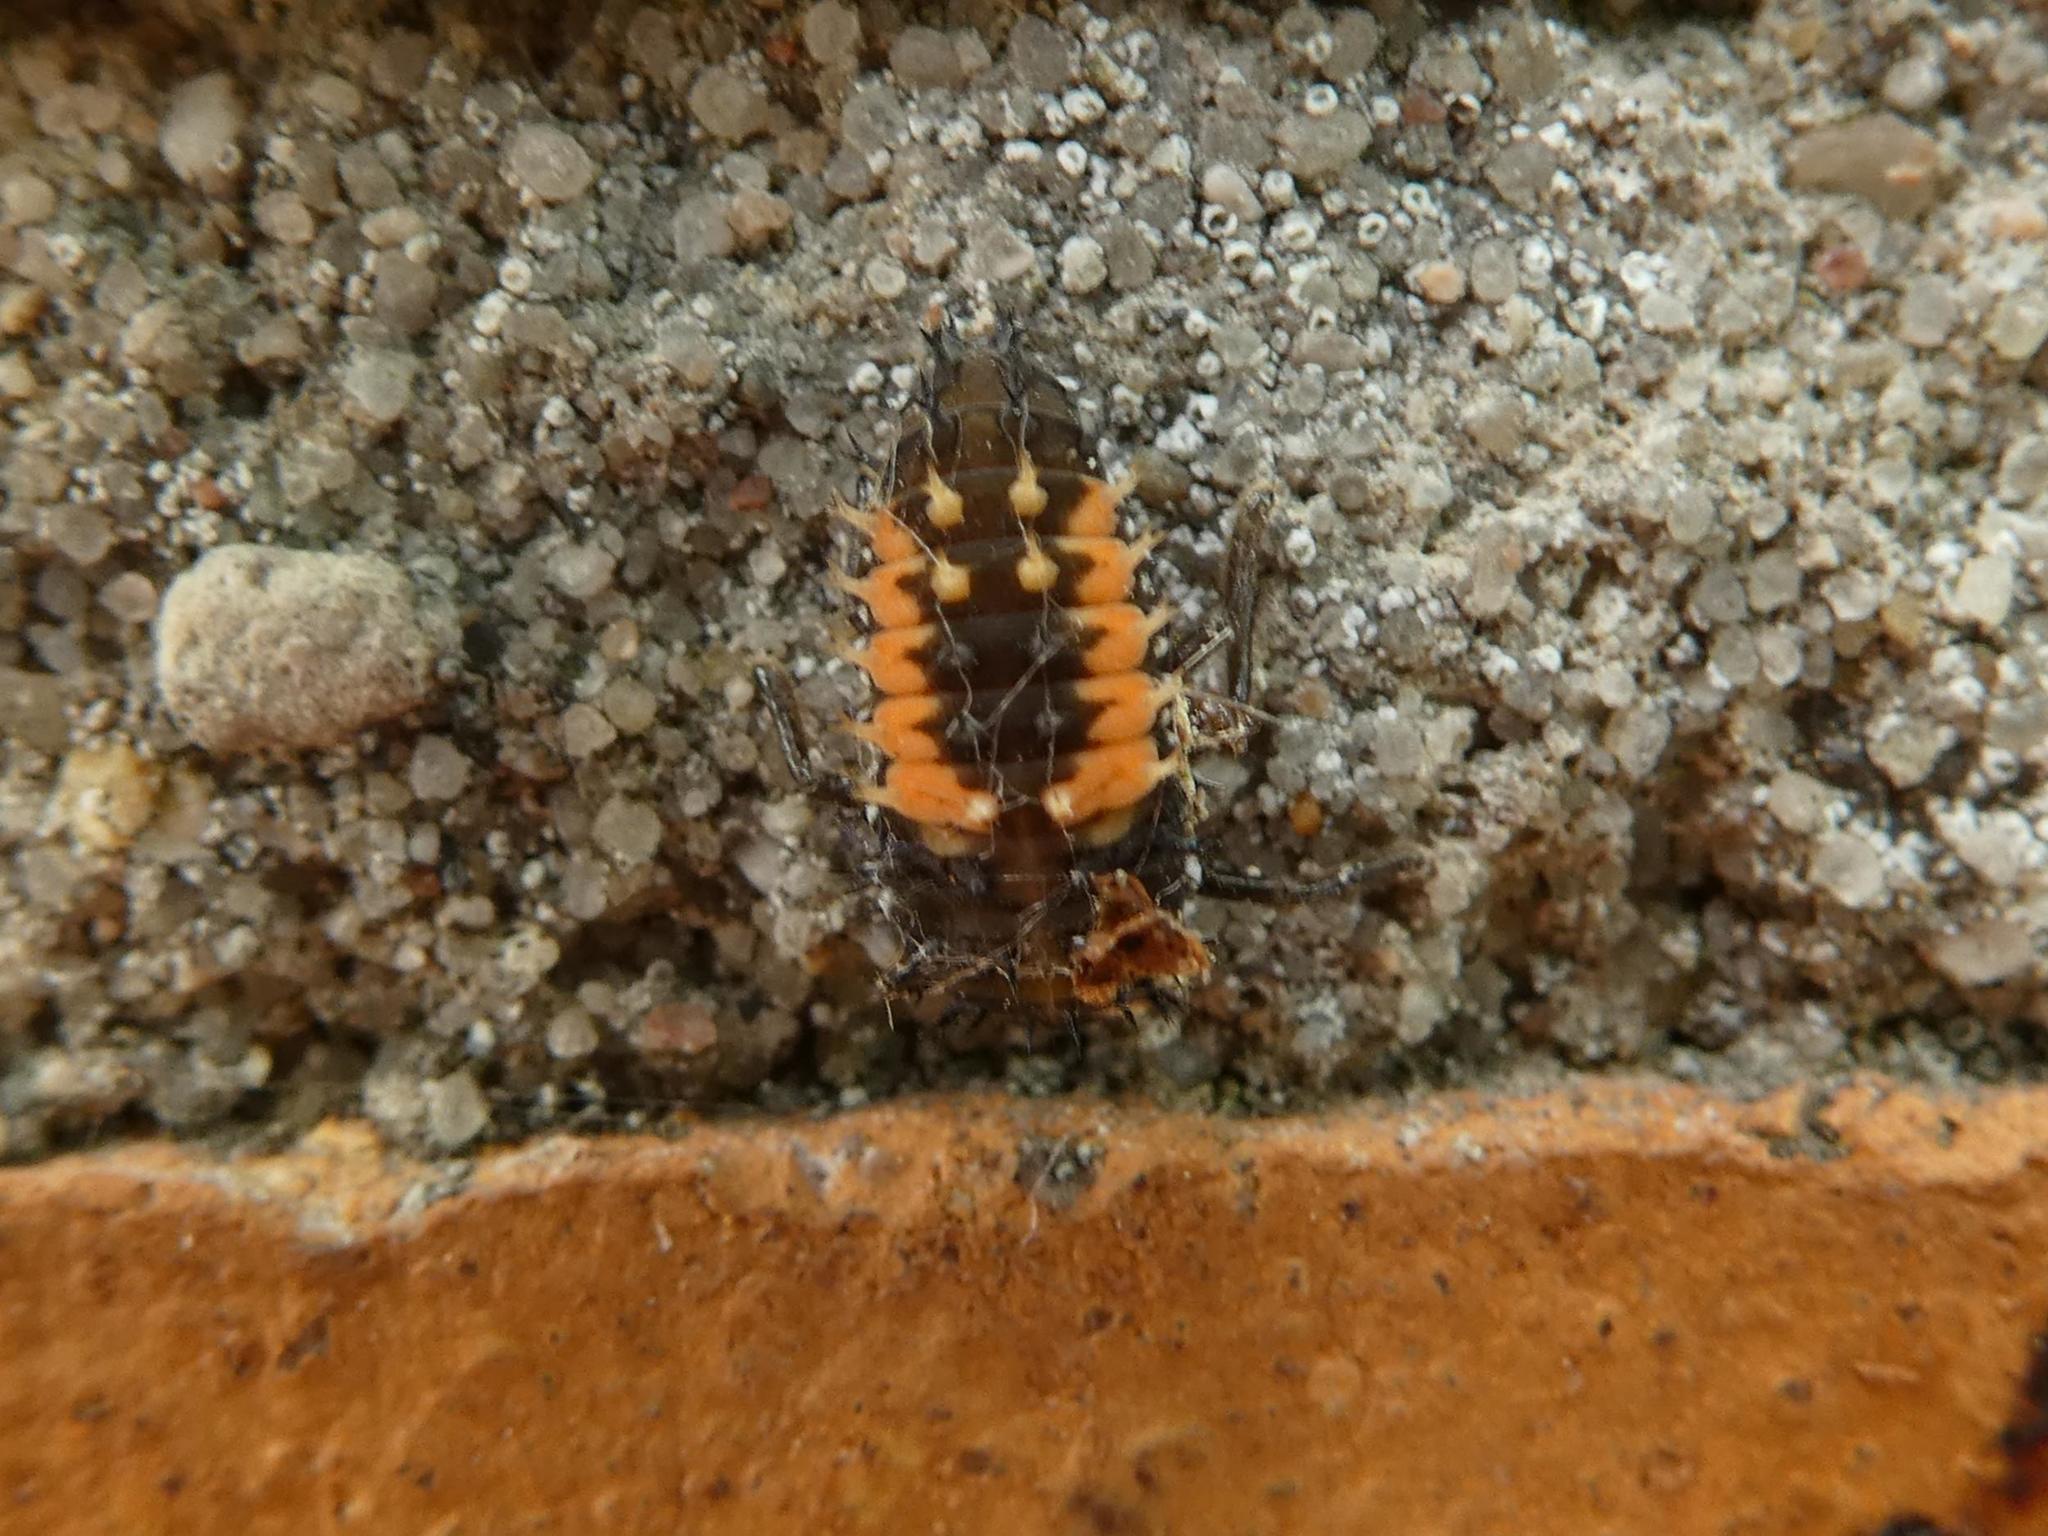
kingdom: Animalia
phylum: Arthropoda
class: Insecta
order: Coleoptera
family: Coccinellidae
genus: Harmonia
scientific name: Harmonia axyridis
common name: Harlequin ladybird
